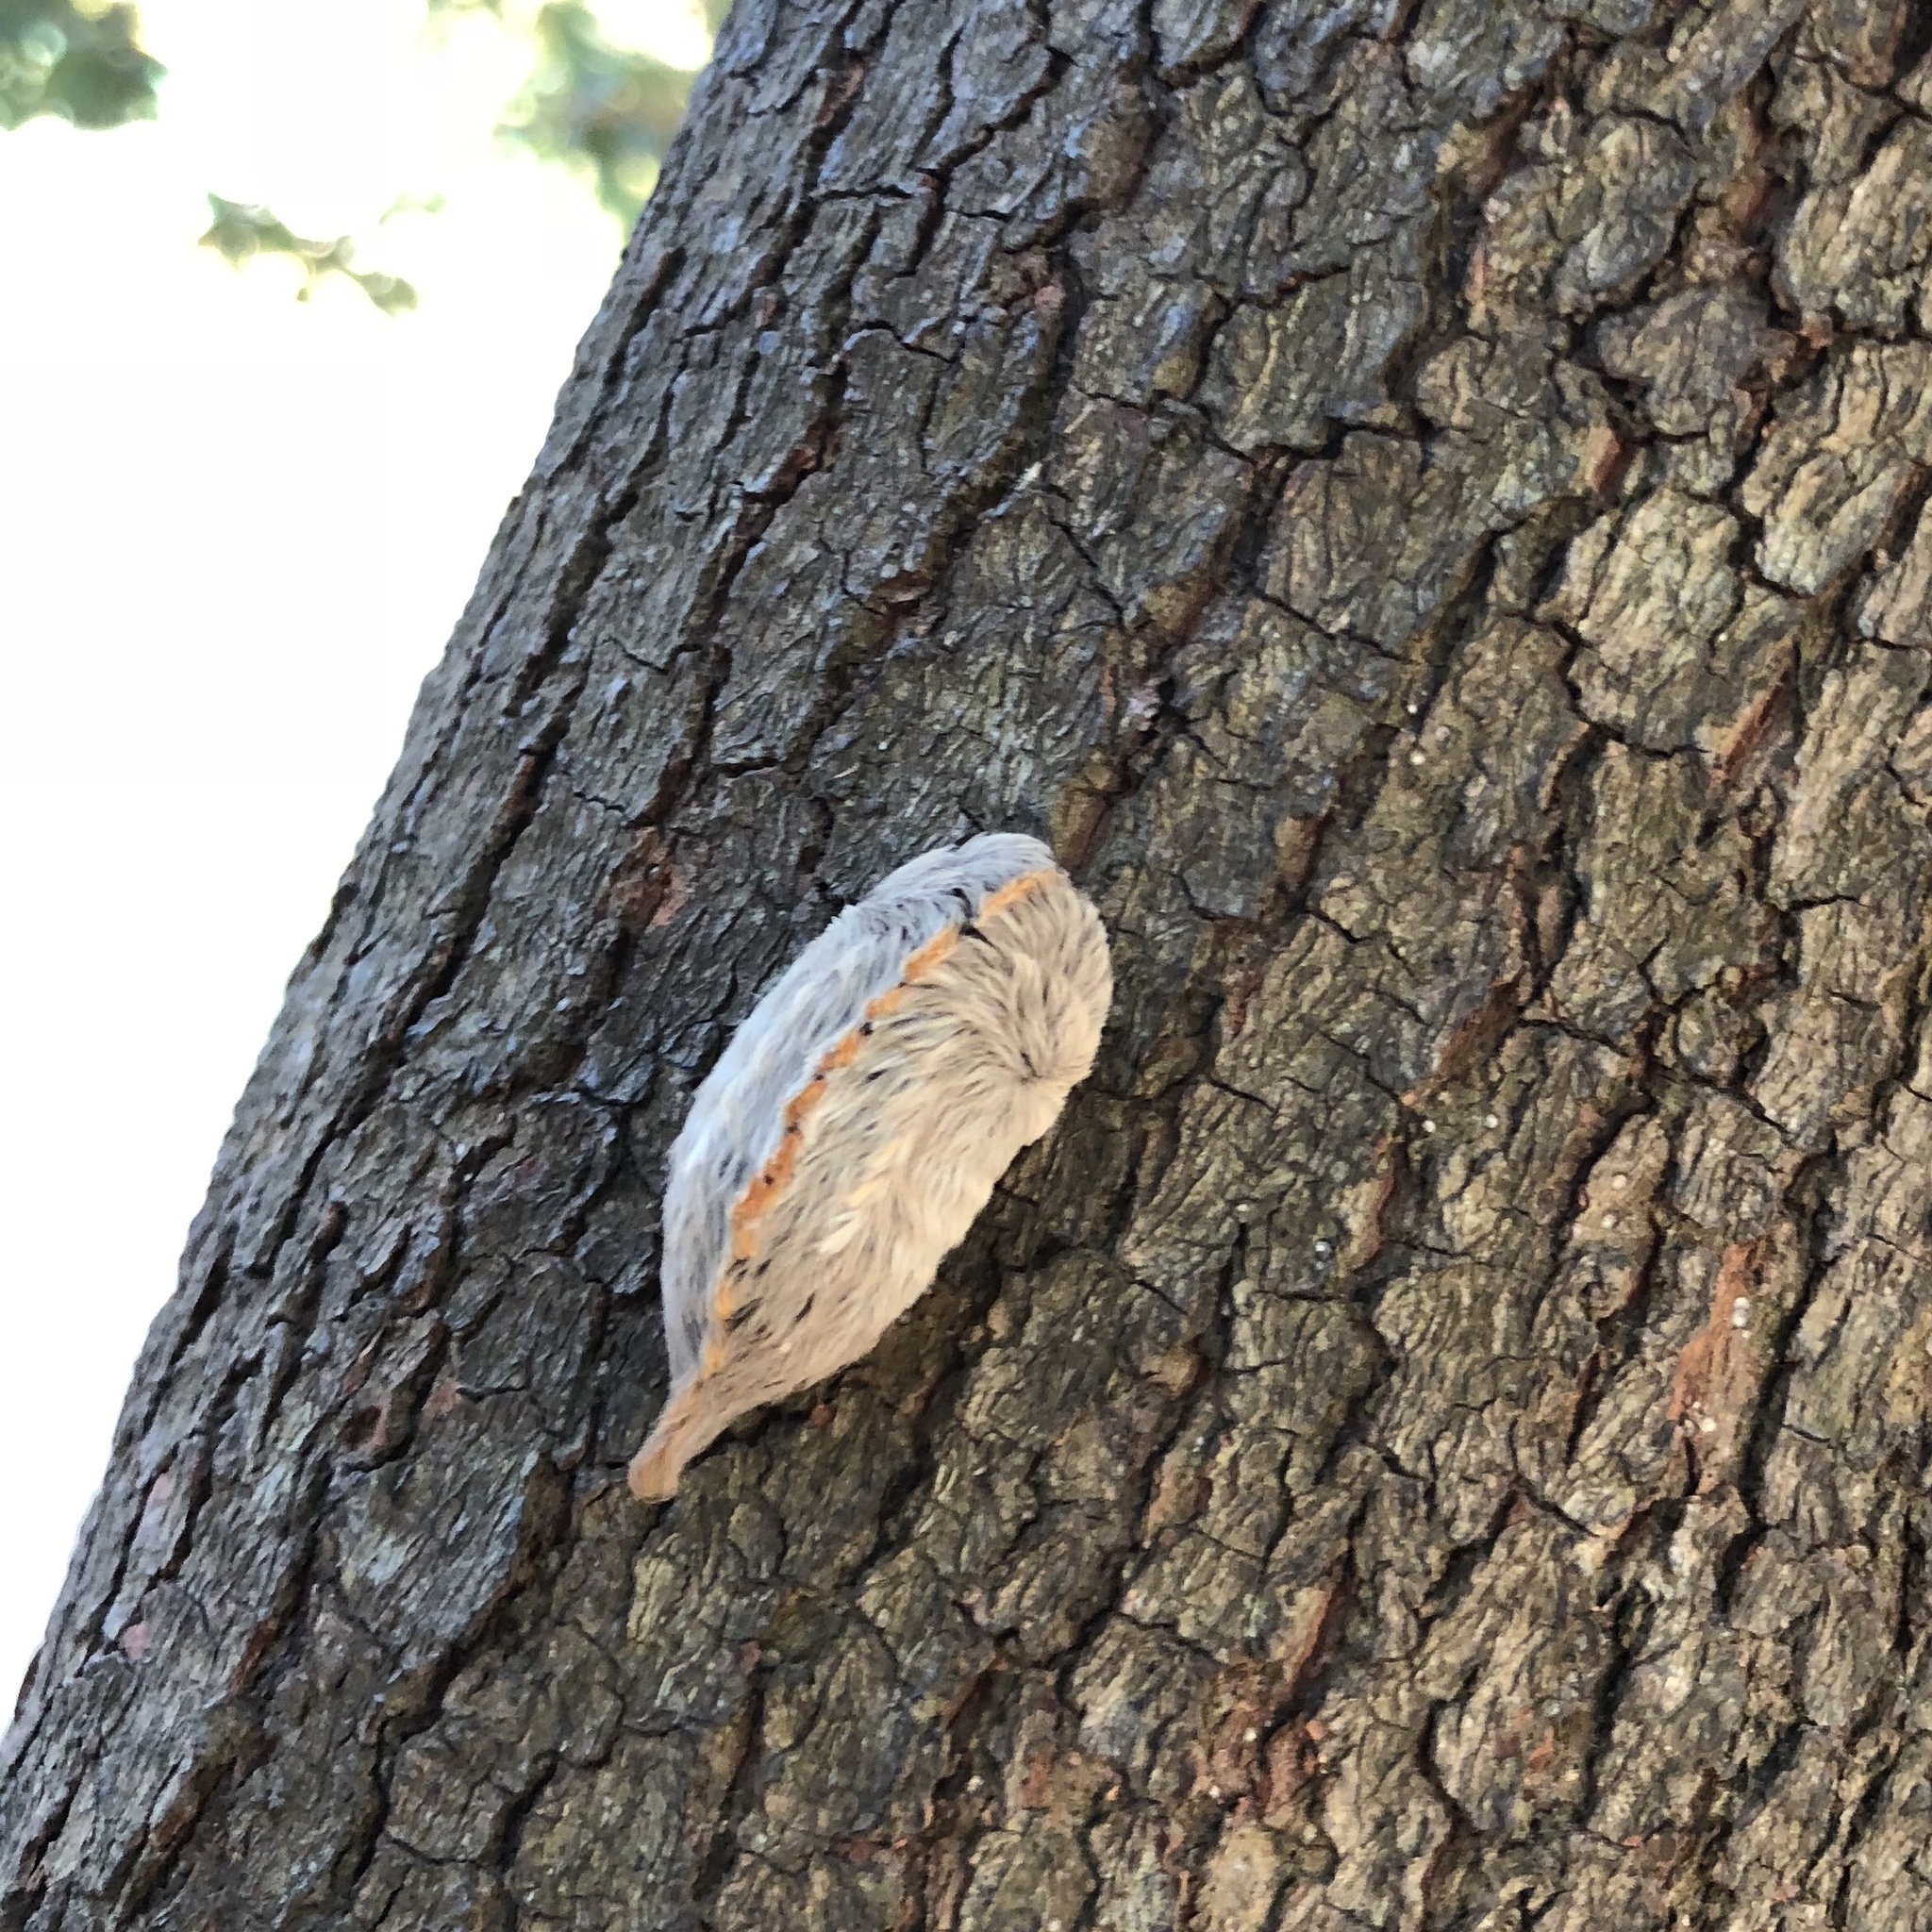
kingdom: Animalia
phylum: Arthropoda
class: Insecta
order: Lepidoptera
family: Megalopygidae
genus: Megalopyge
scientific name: Megalopyge opercularis
